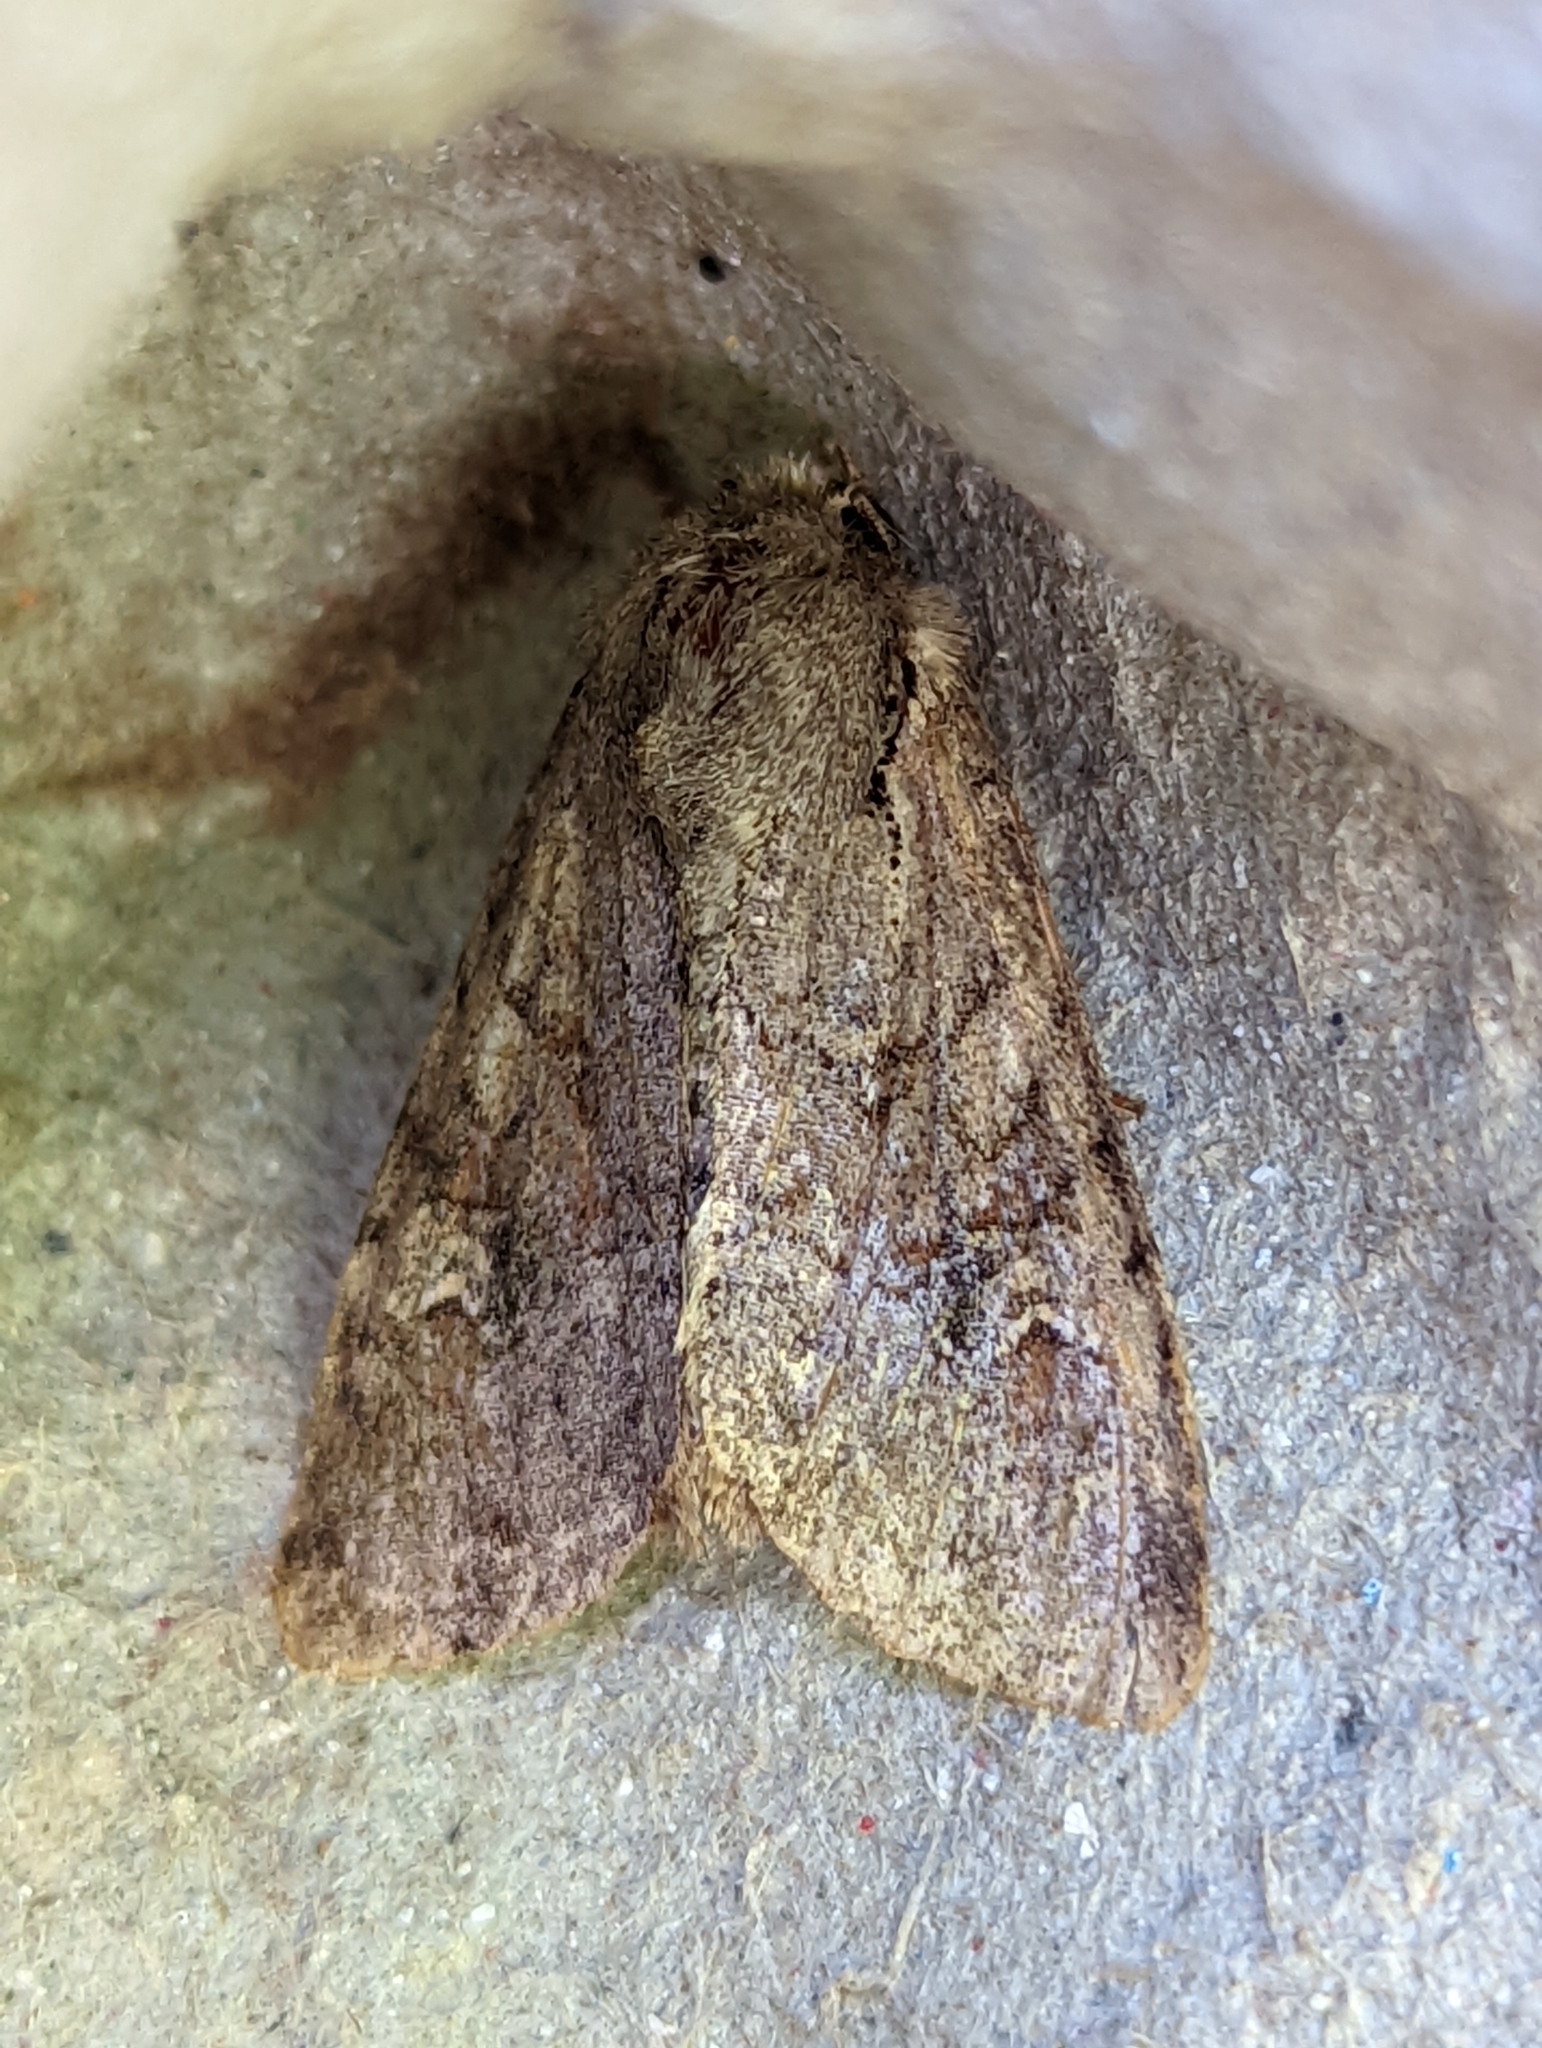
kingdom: Animalia
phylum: Arthropoda
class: Insecta
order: Lepidoptera
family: Noctuidae
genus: Apamea
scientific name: Apamea sordens
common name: Rustic shoulder-knot
